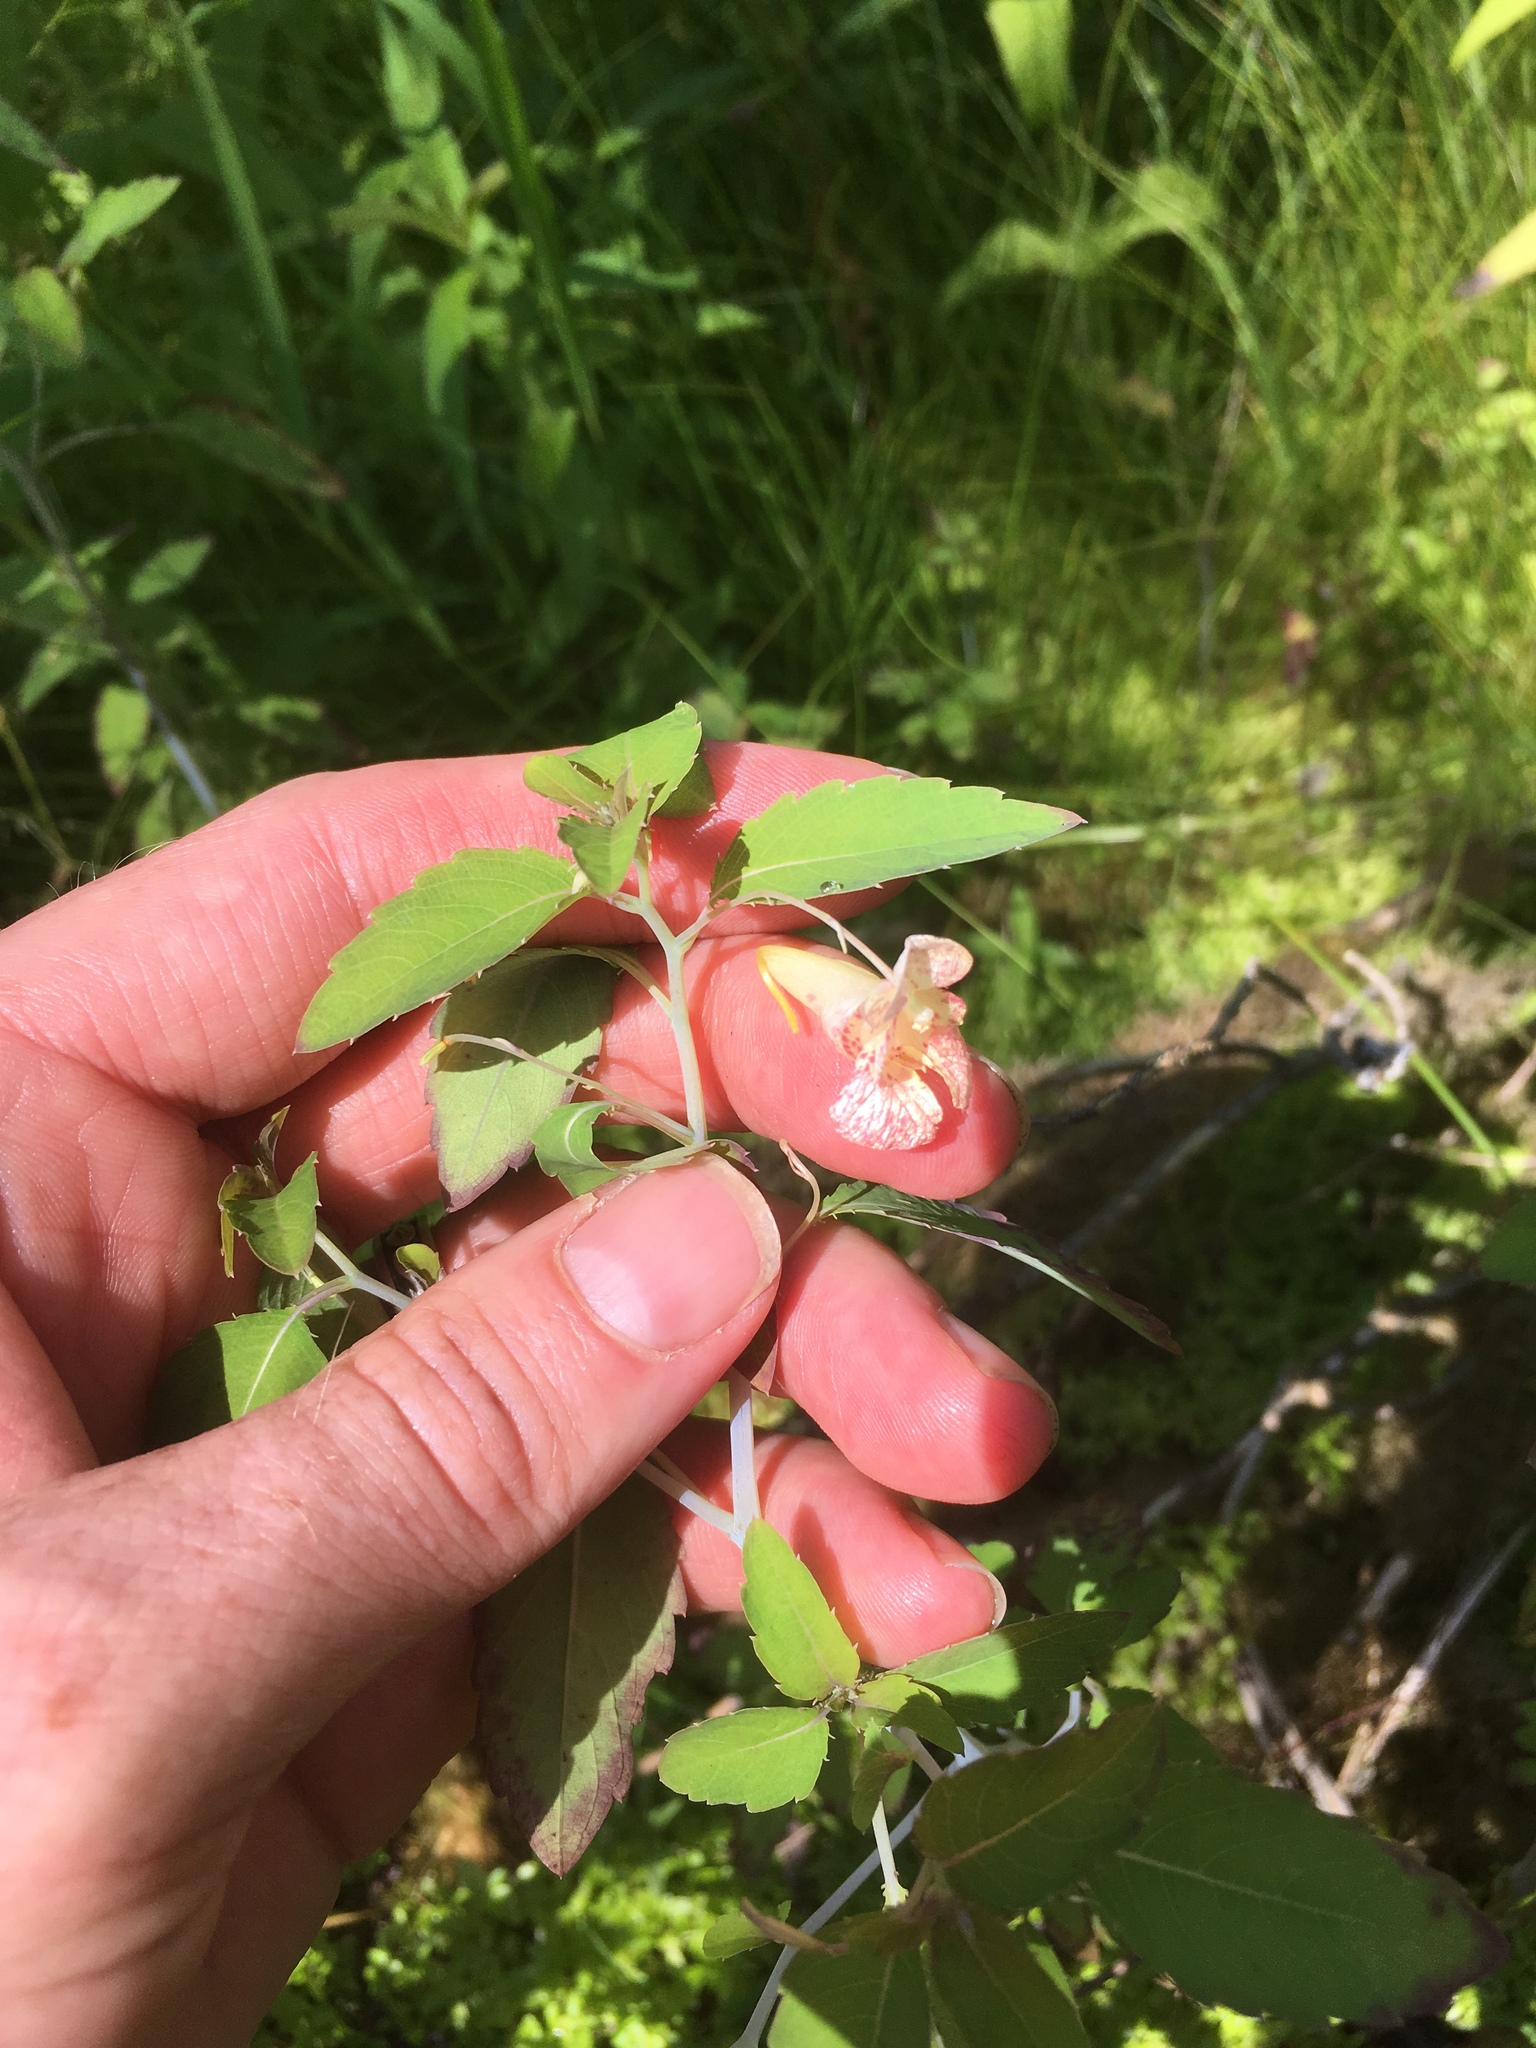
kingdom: Plantae
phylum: Tracheophyta
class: Magnoliopsida
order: Ericales
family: Balsaminaceae
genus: Impatiens
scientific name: Impatiens capensis
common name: Orange balsam
